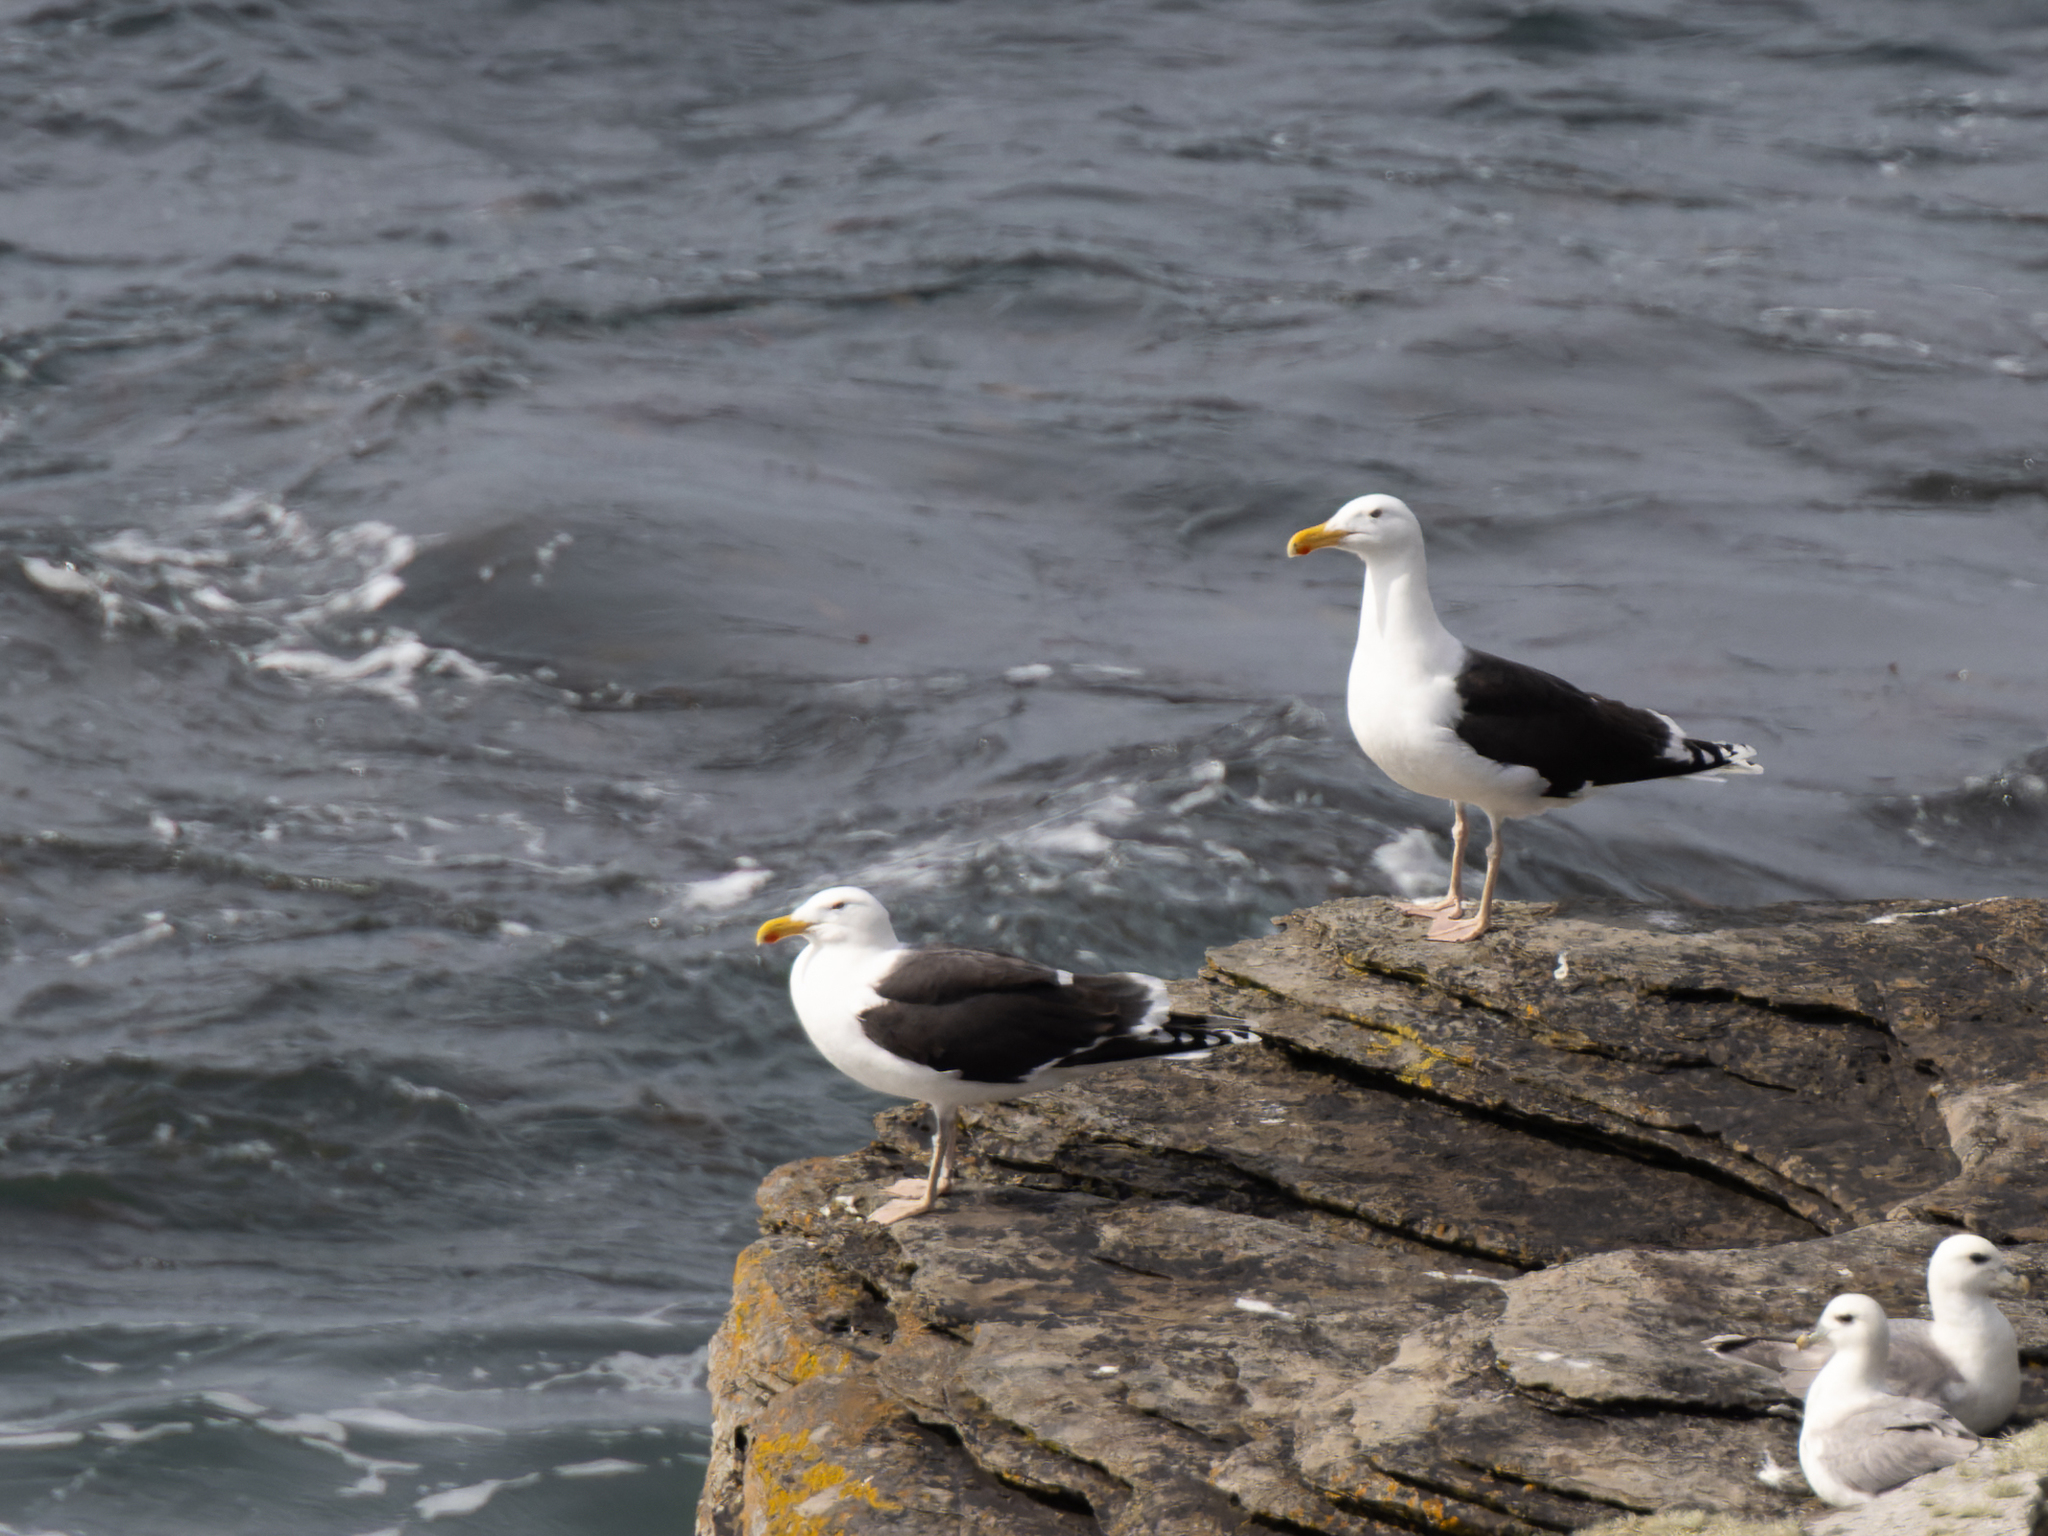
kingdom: Animalia
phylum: Chordata
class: Aves
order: Charadriiformes
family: Laridae
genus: Larus
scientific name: Larus marinus
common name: Great black-backed gull
